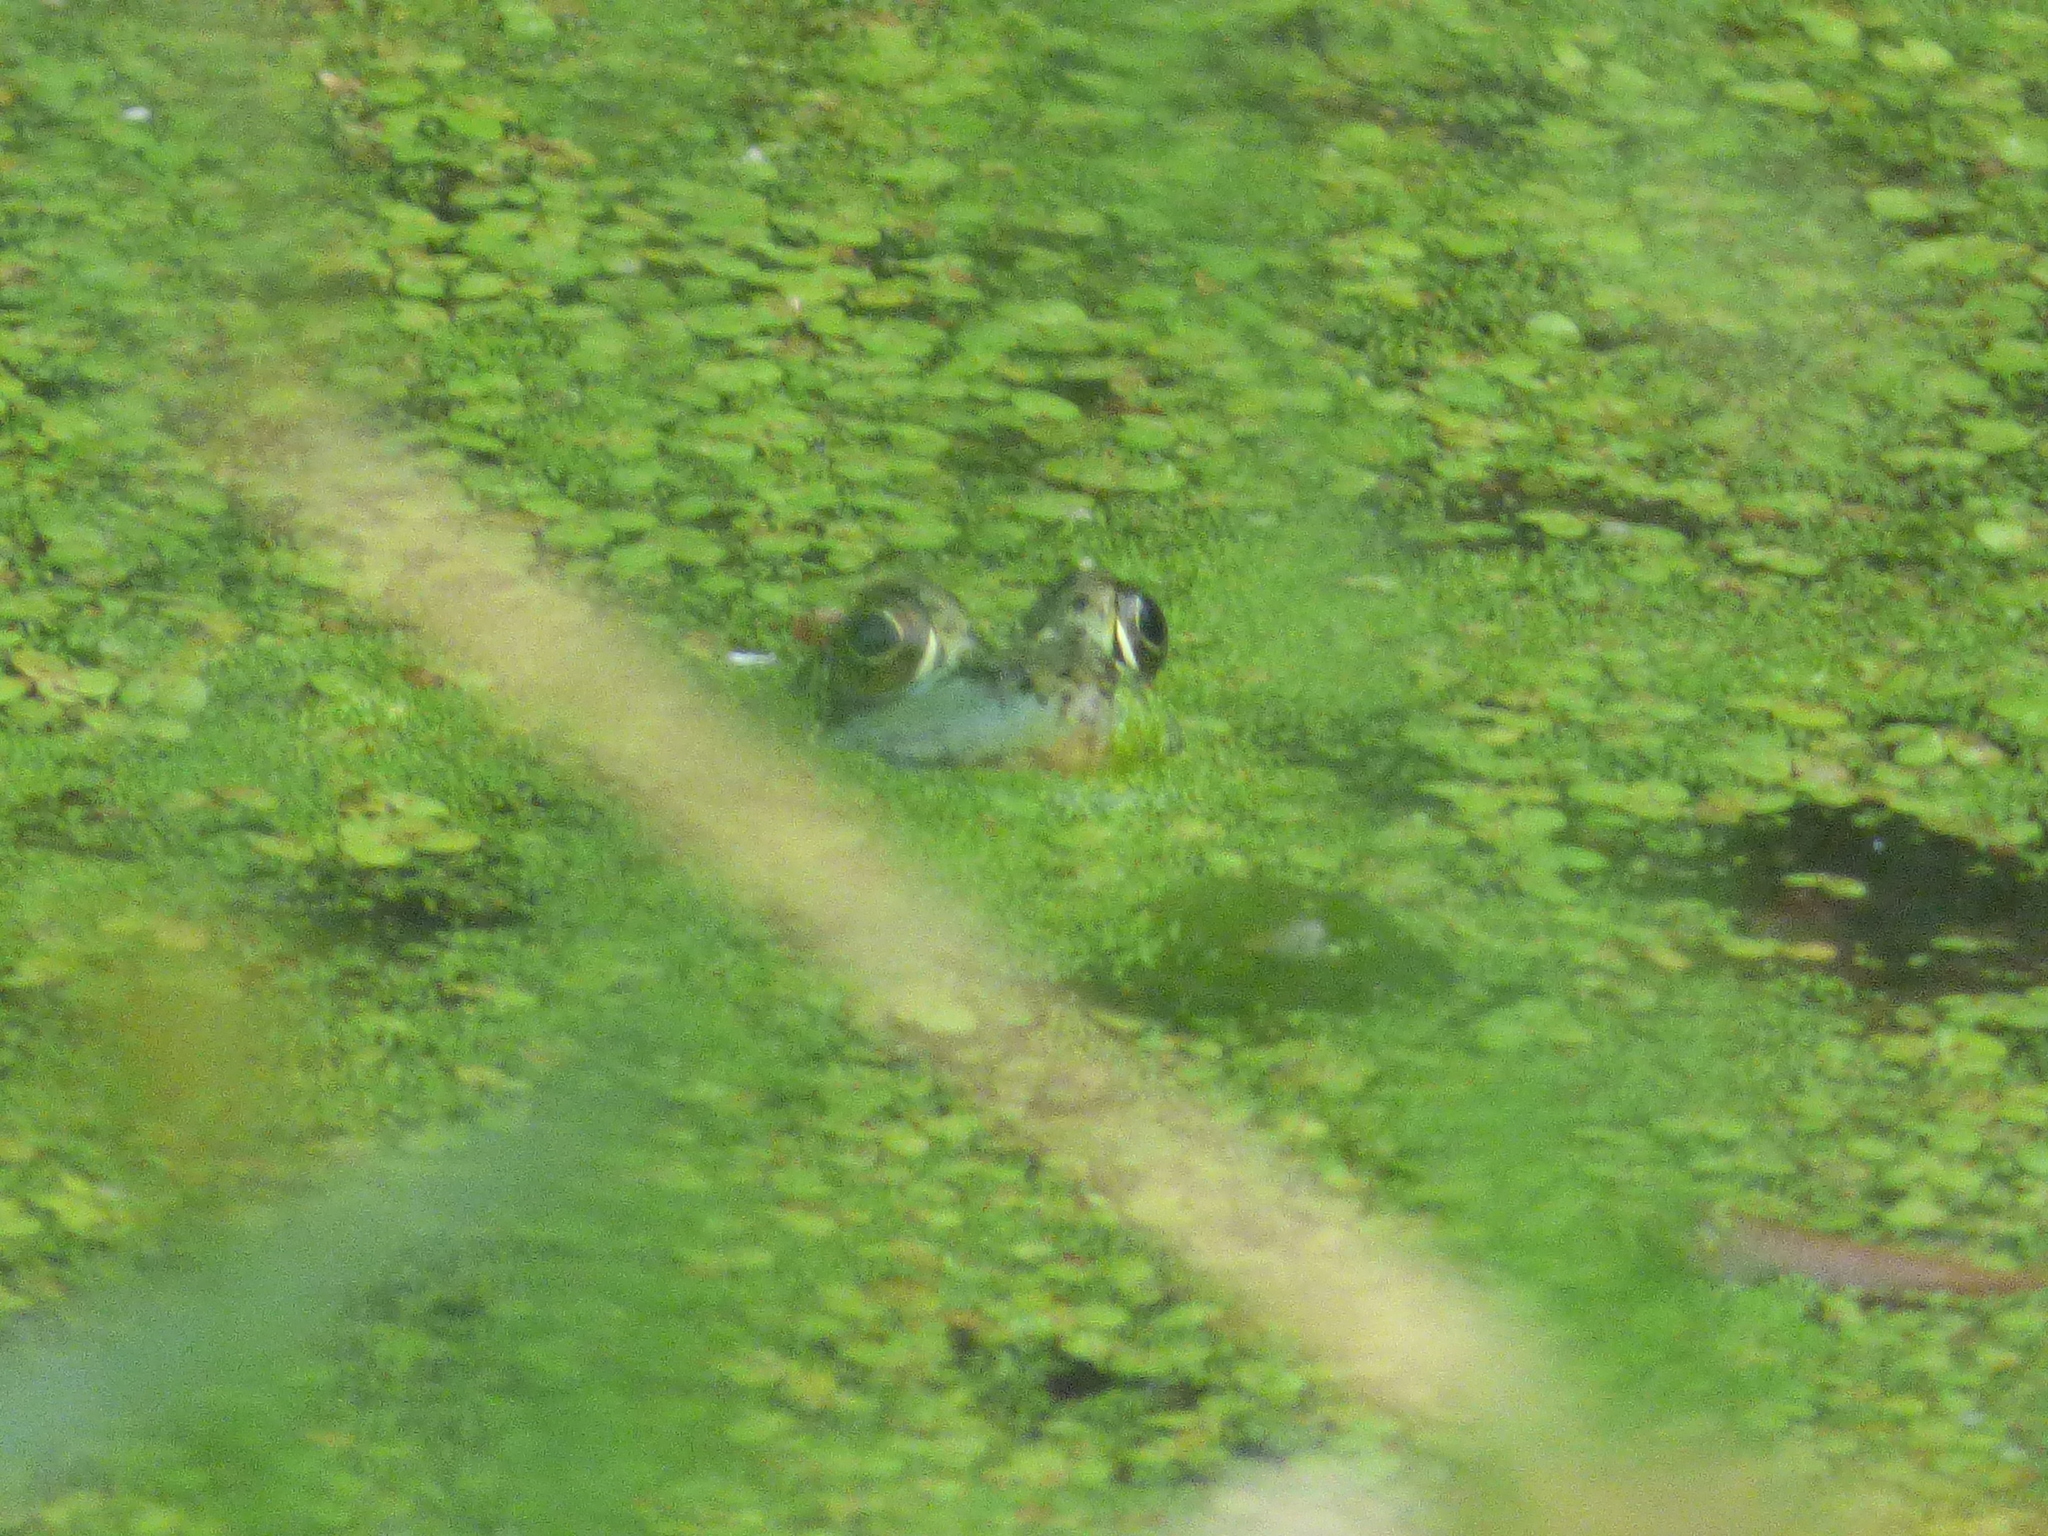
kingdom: Animalia
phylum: Chordata
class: Amphibia
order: Anura
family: Ranidae
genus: Lithobates
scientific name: Lithobates clamitans
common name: Green frog
